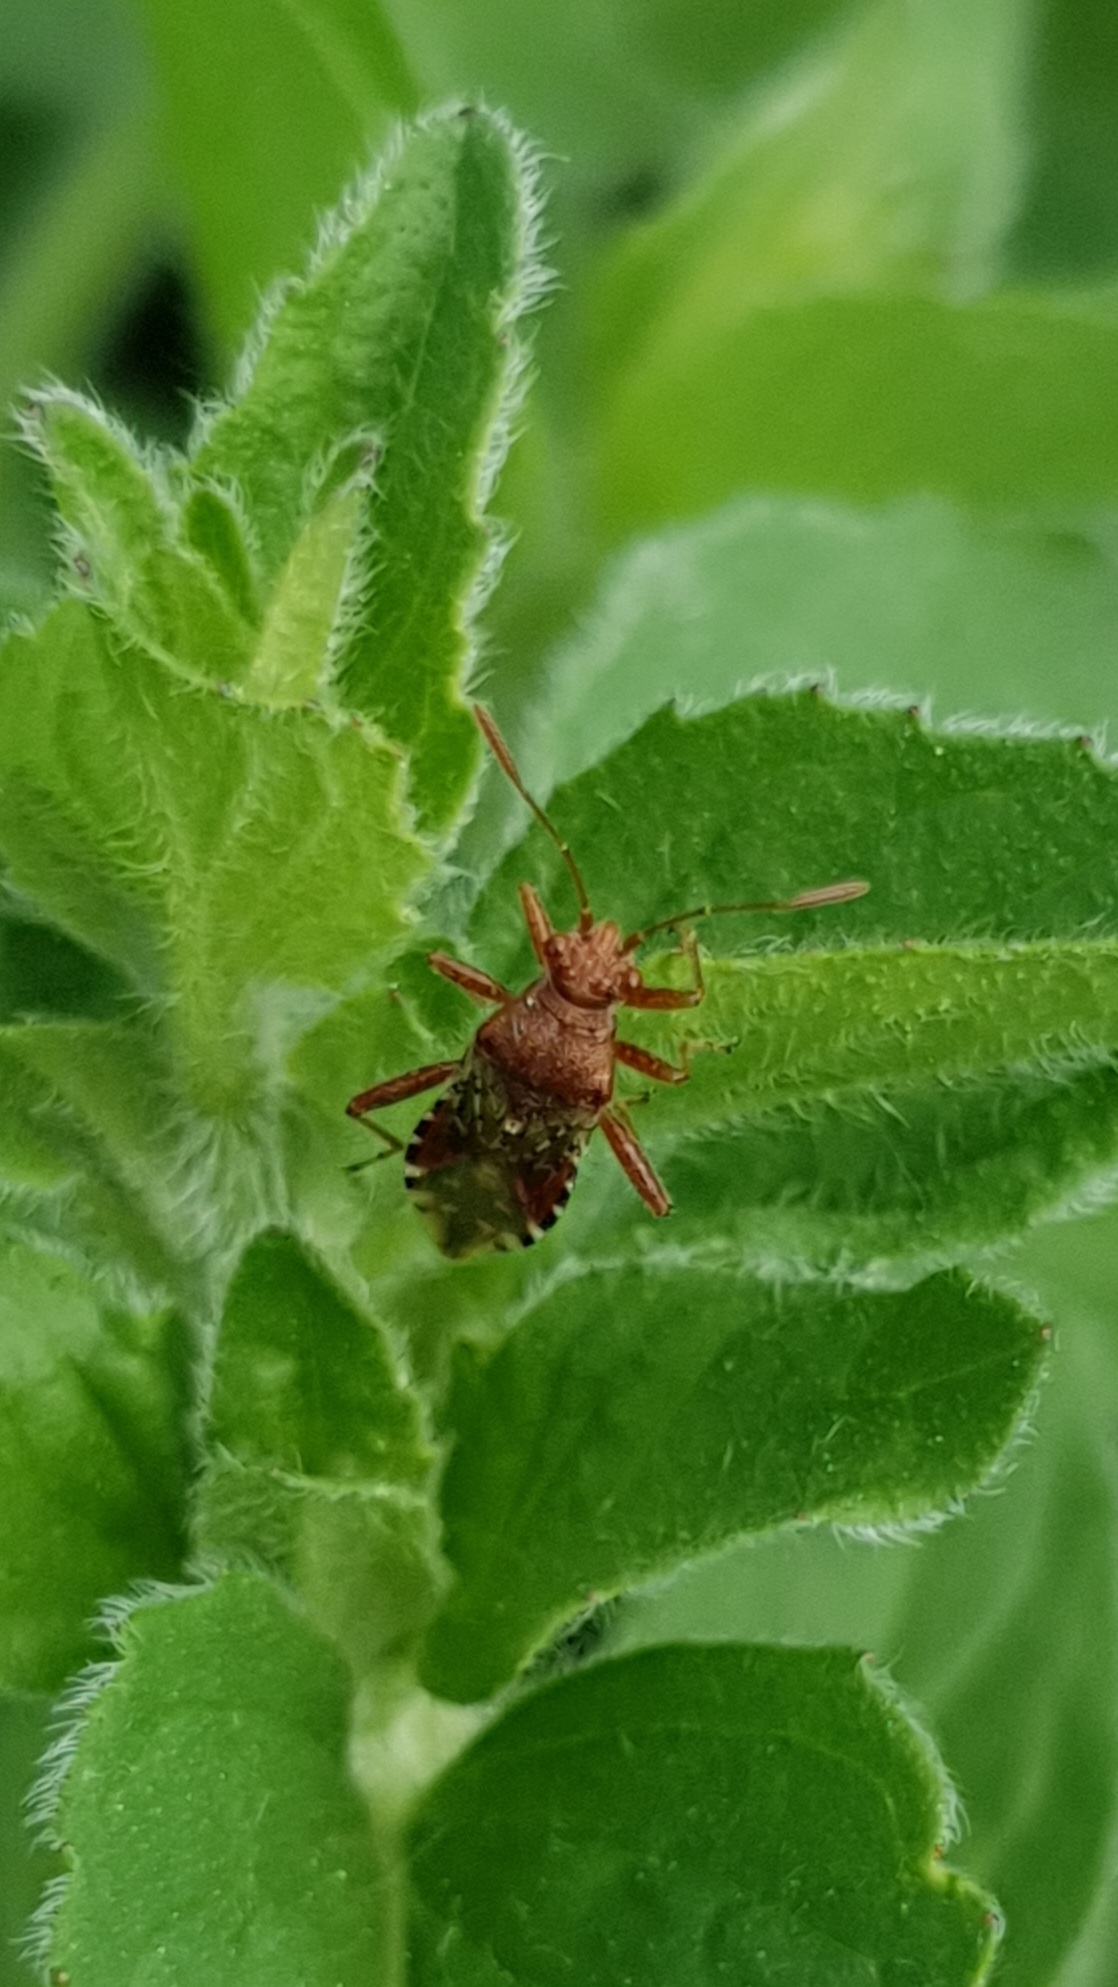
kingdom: Animalia
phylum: Arthropoda
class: Insecta
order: Hemiptera
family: Rhopalidae
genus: Rhopalus
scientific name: Rhopalus subrufus
